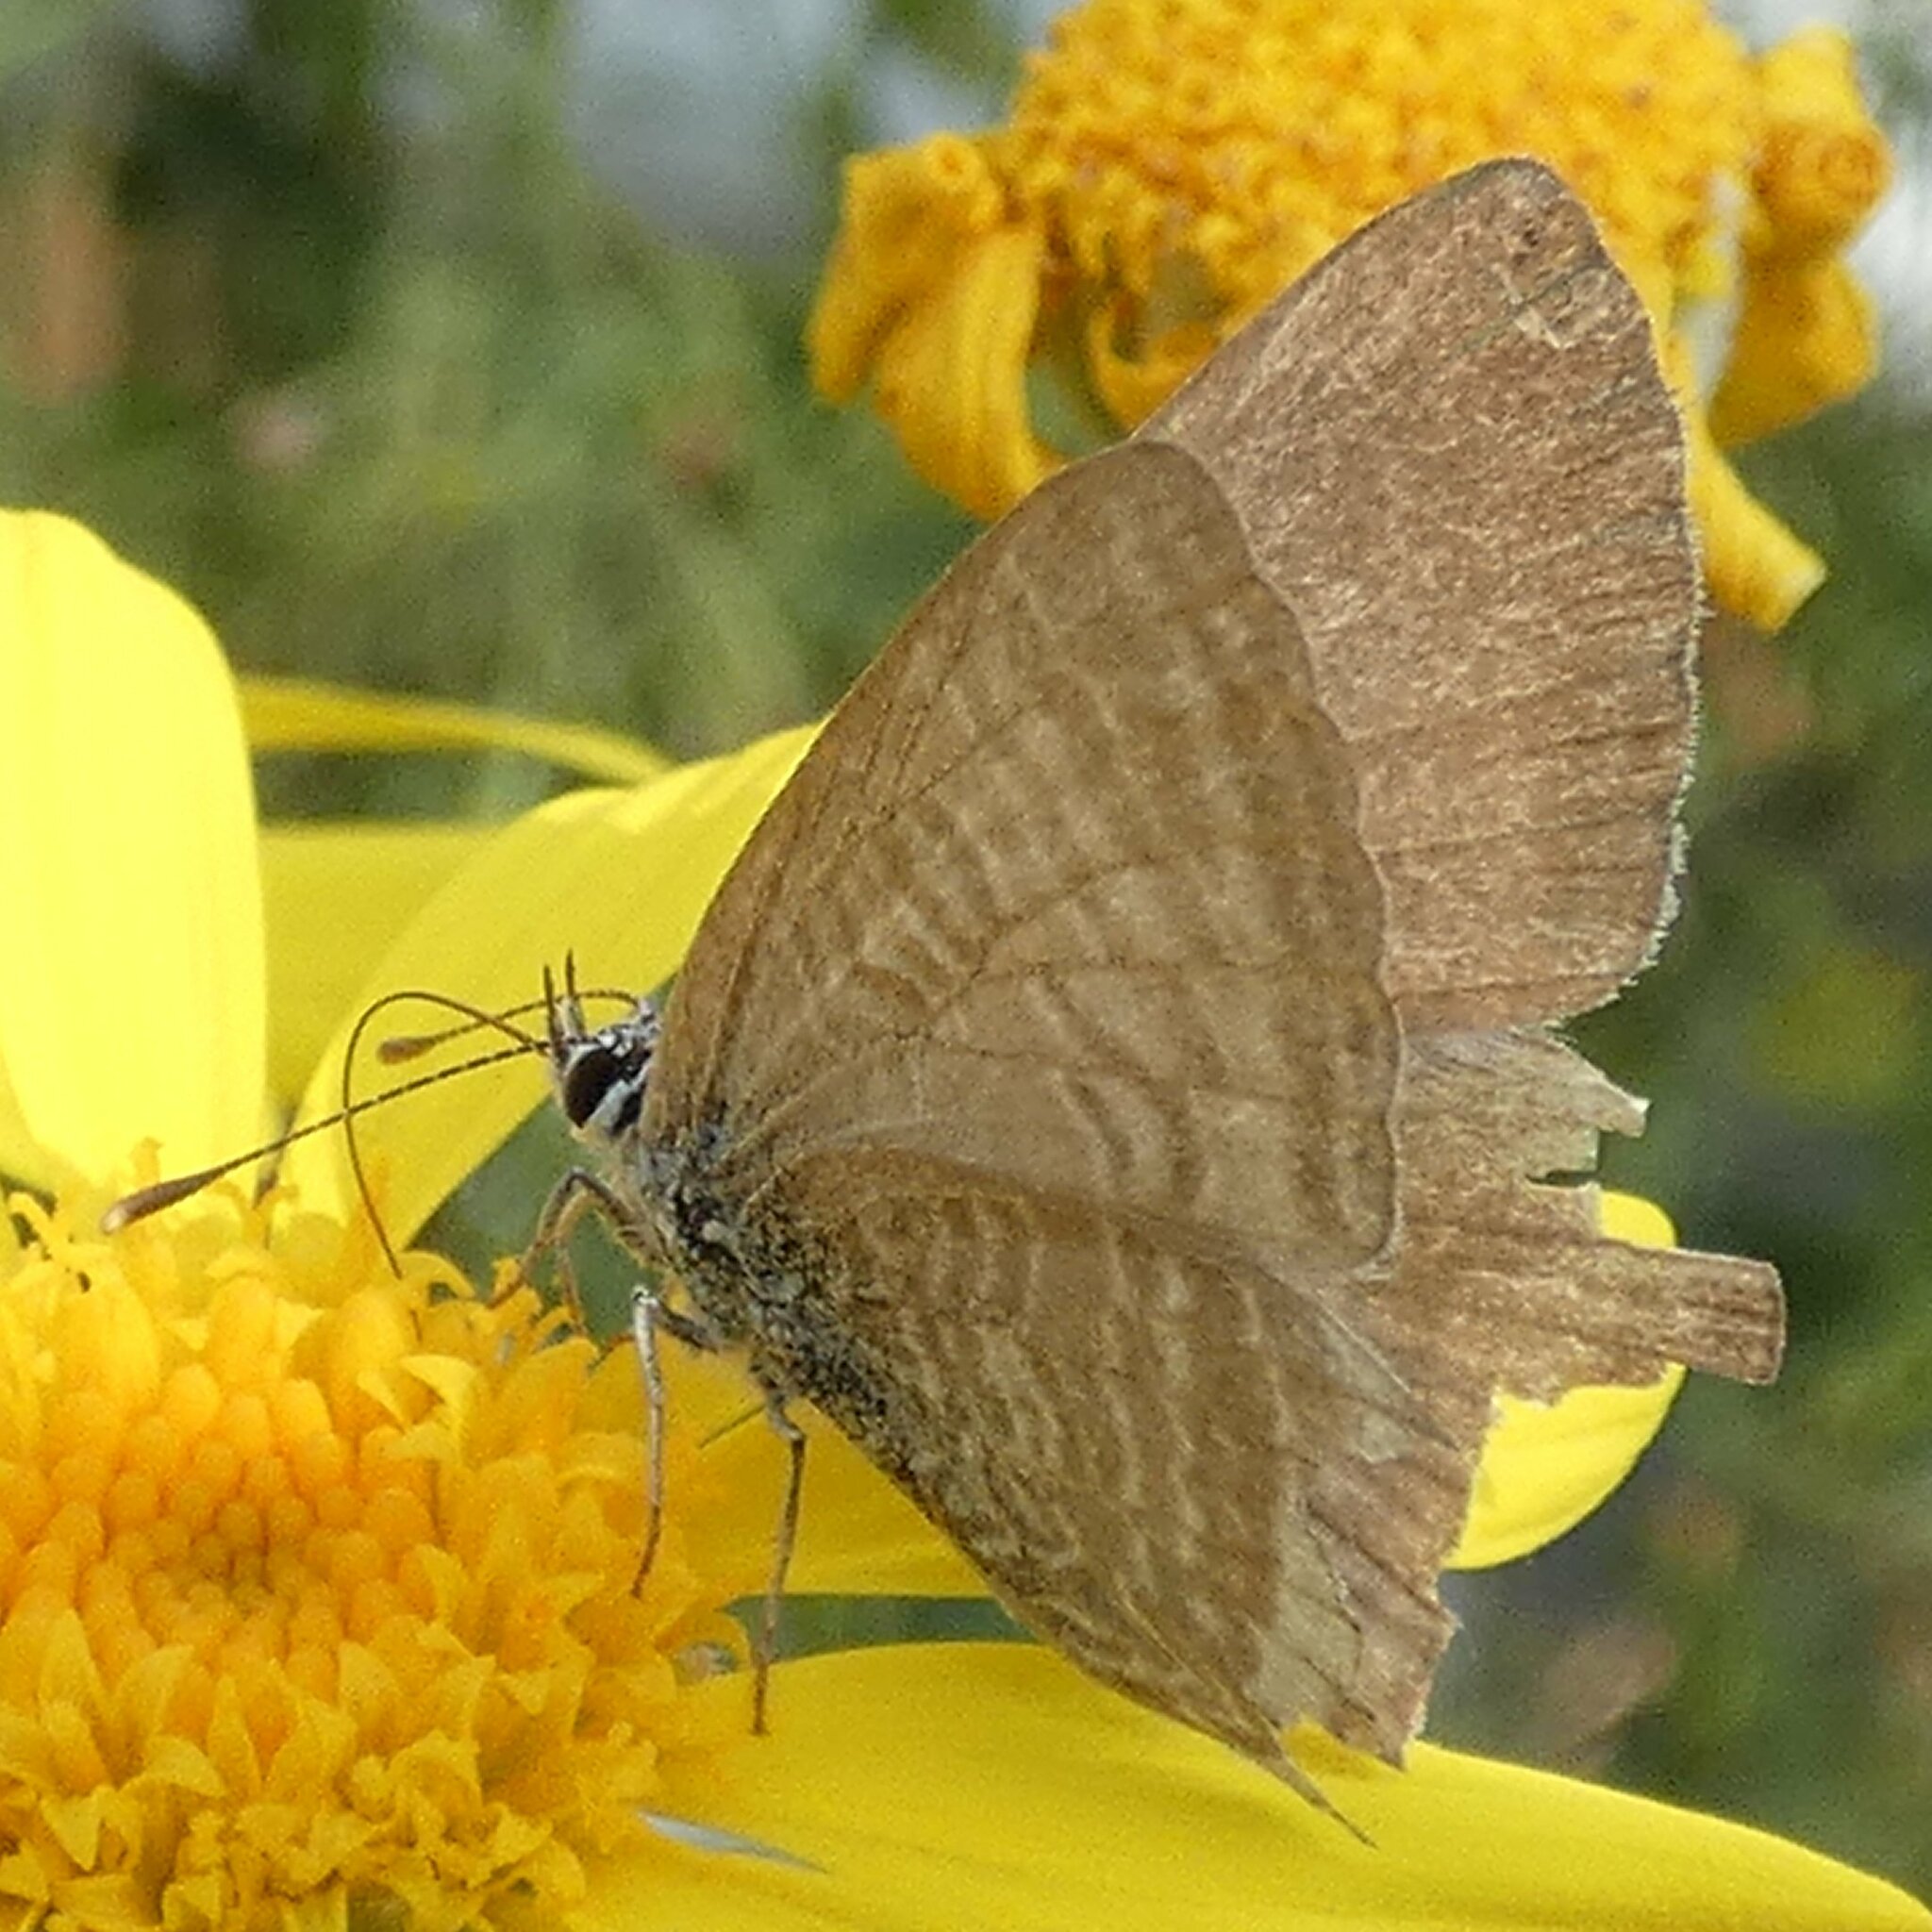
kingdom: Animalia
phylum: Arthropoda
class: Insecta
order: Lepidoptera
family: Lycaenidae
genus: Lampides
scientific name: Lampides boeticus
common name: Long-tailed blue
